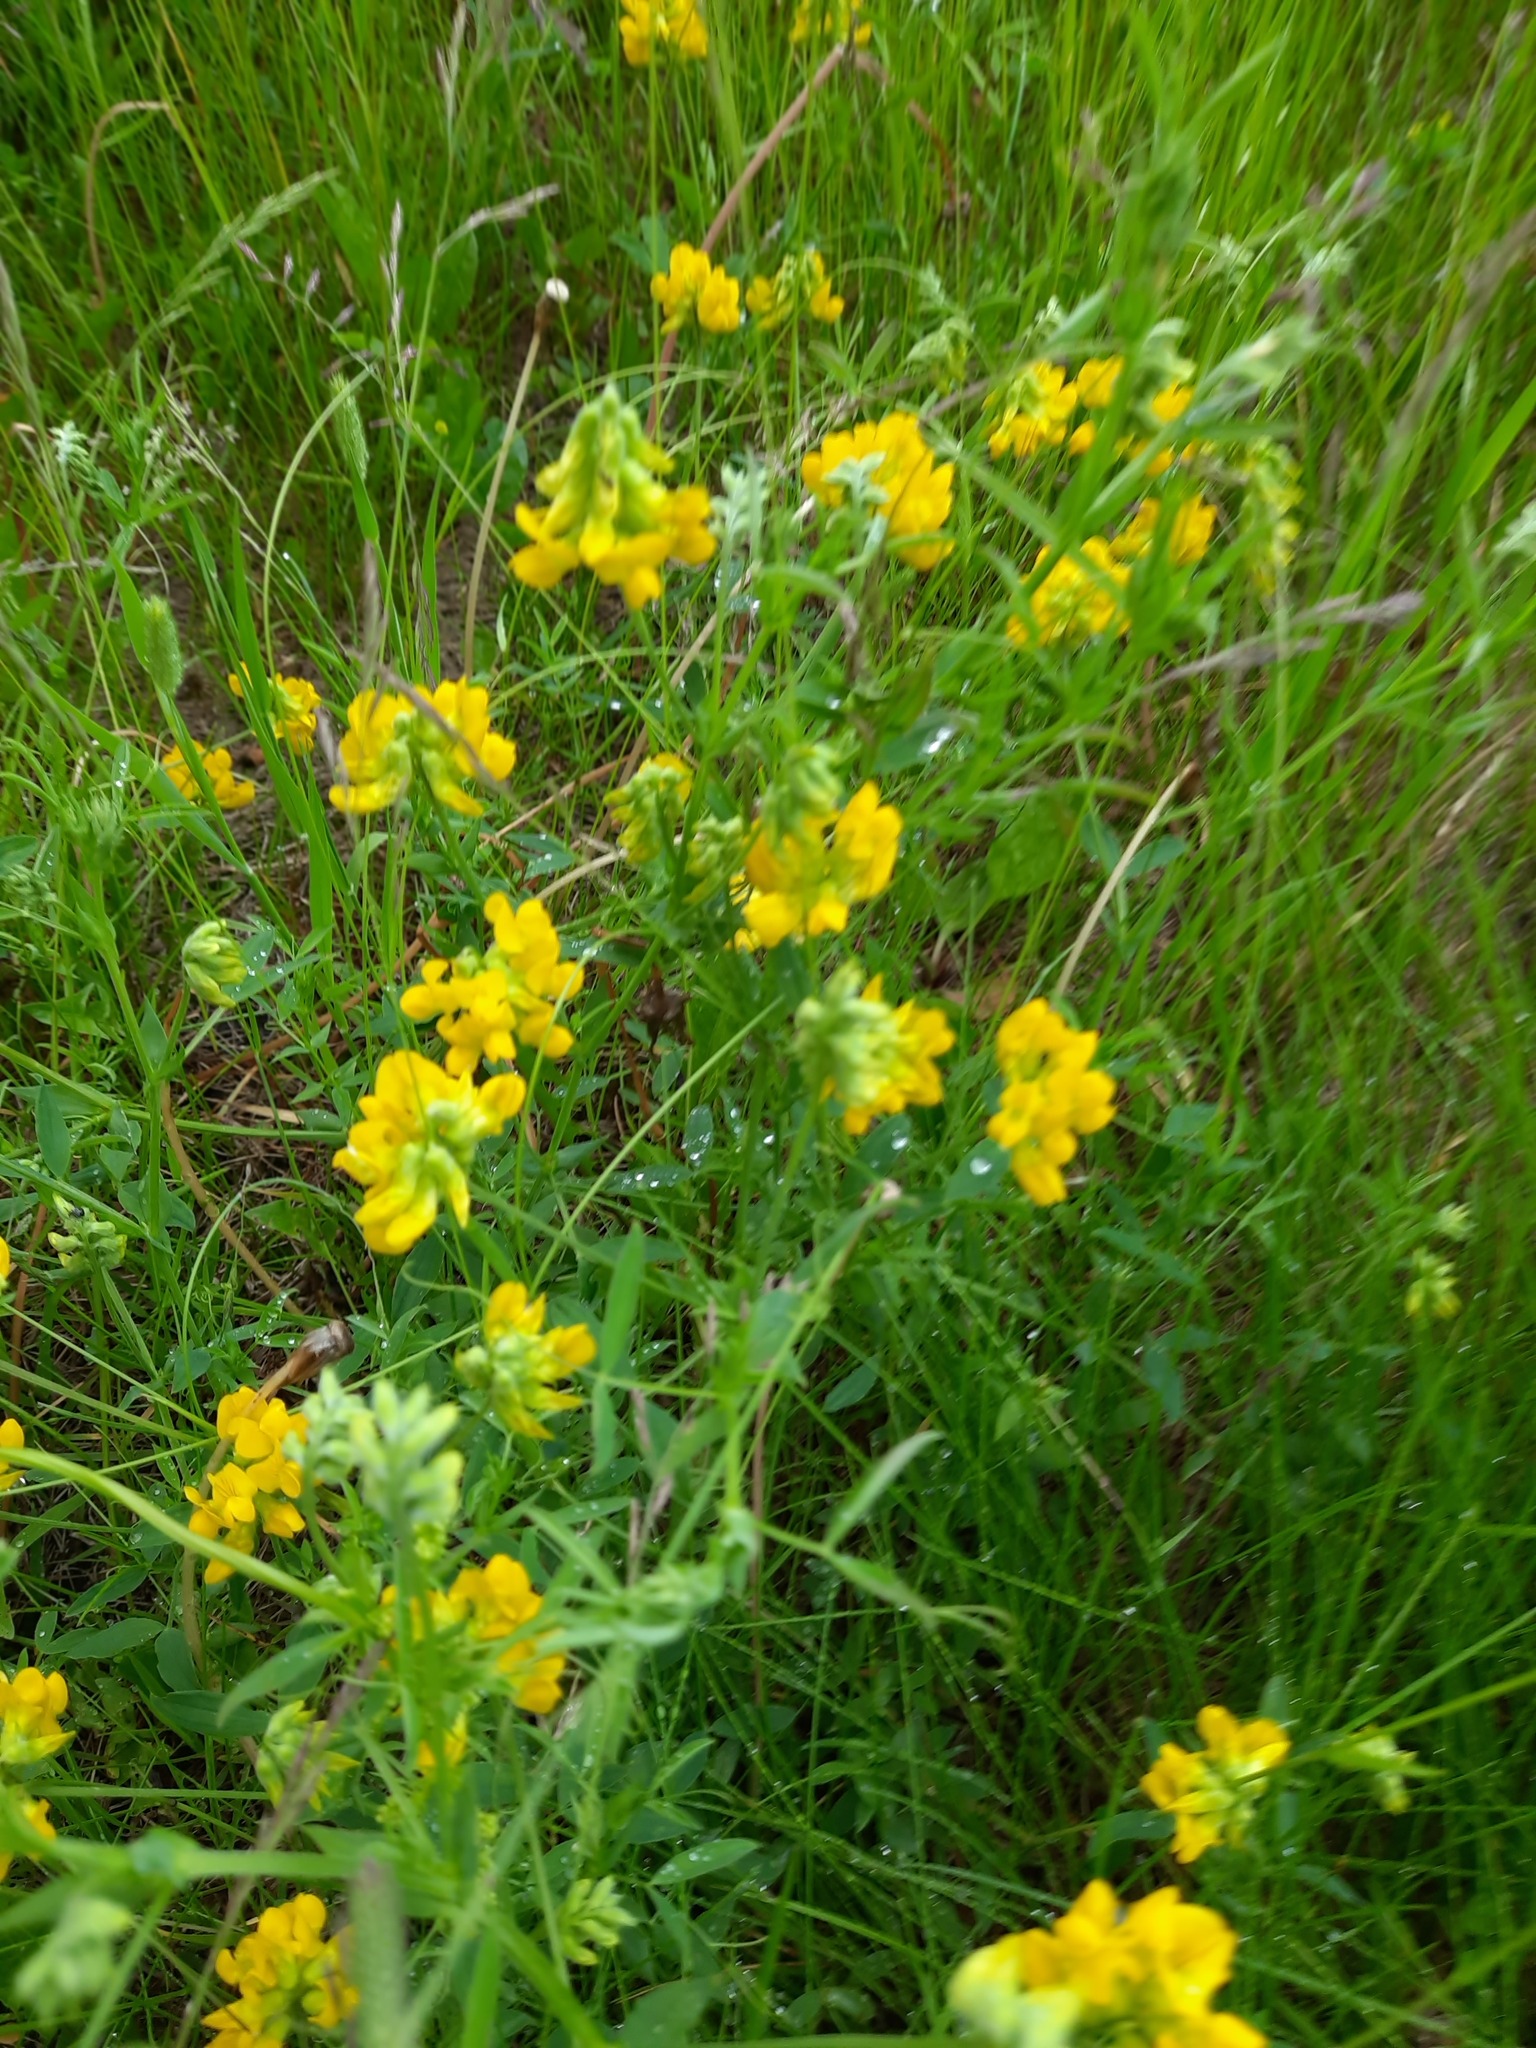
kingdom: Plantae
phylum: Tracheophyta
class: Magnoliopsida
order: Fabales
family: Fabaceae
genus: Lathyrus
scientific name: Lathyrus pratensis
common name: Meadow vetchling
